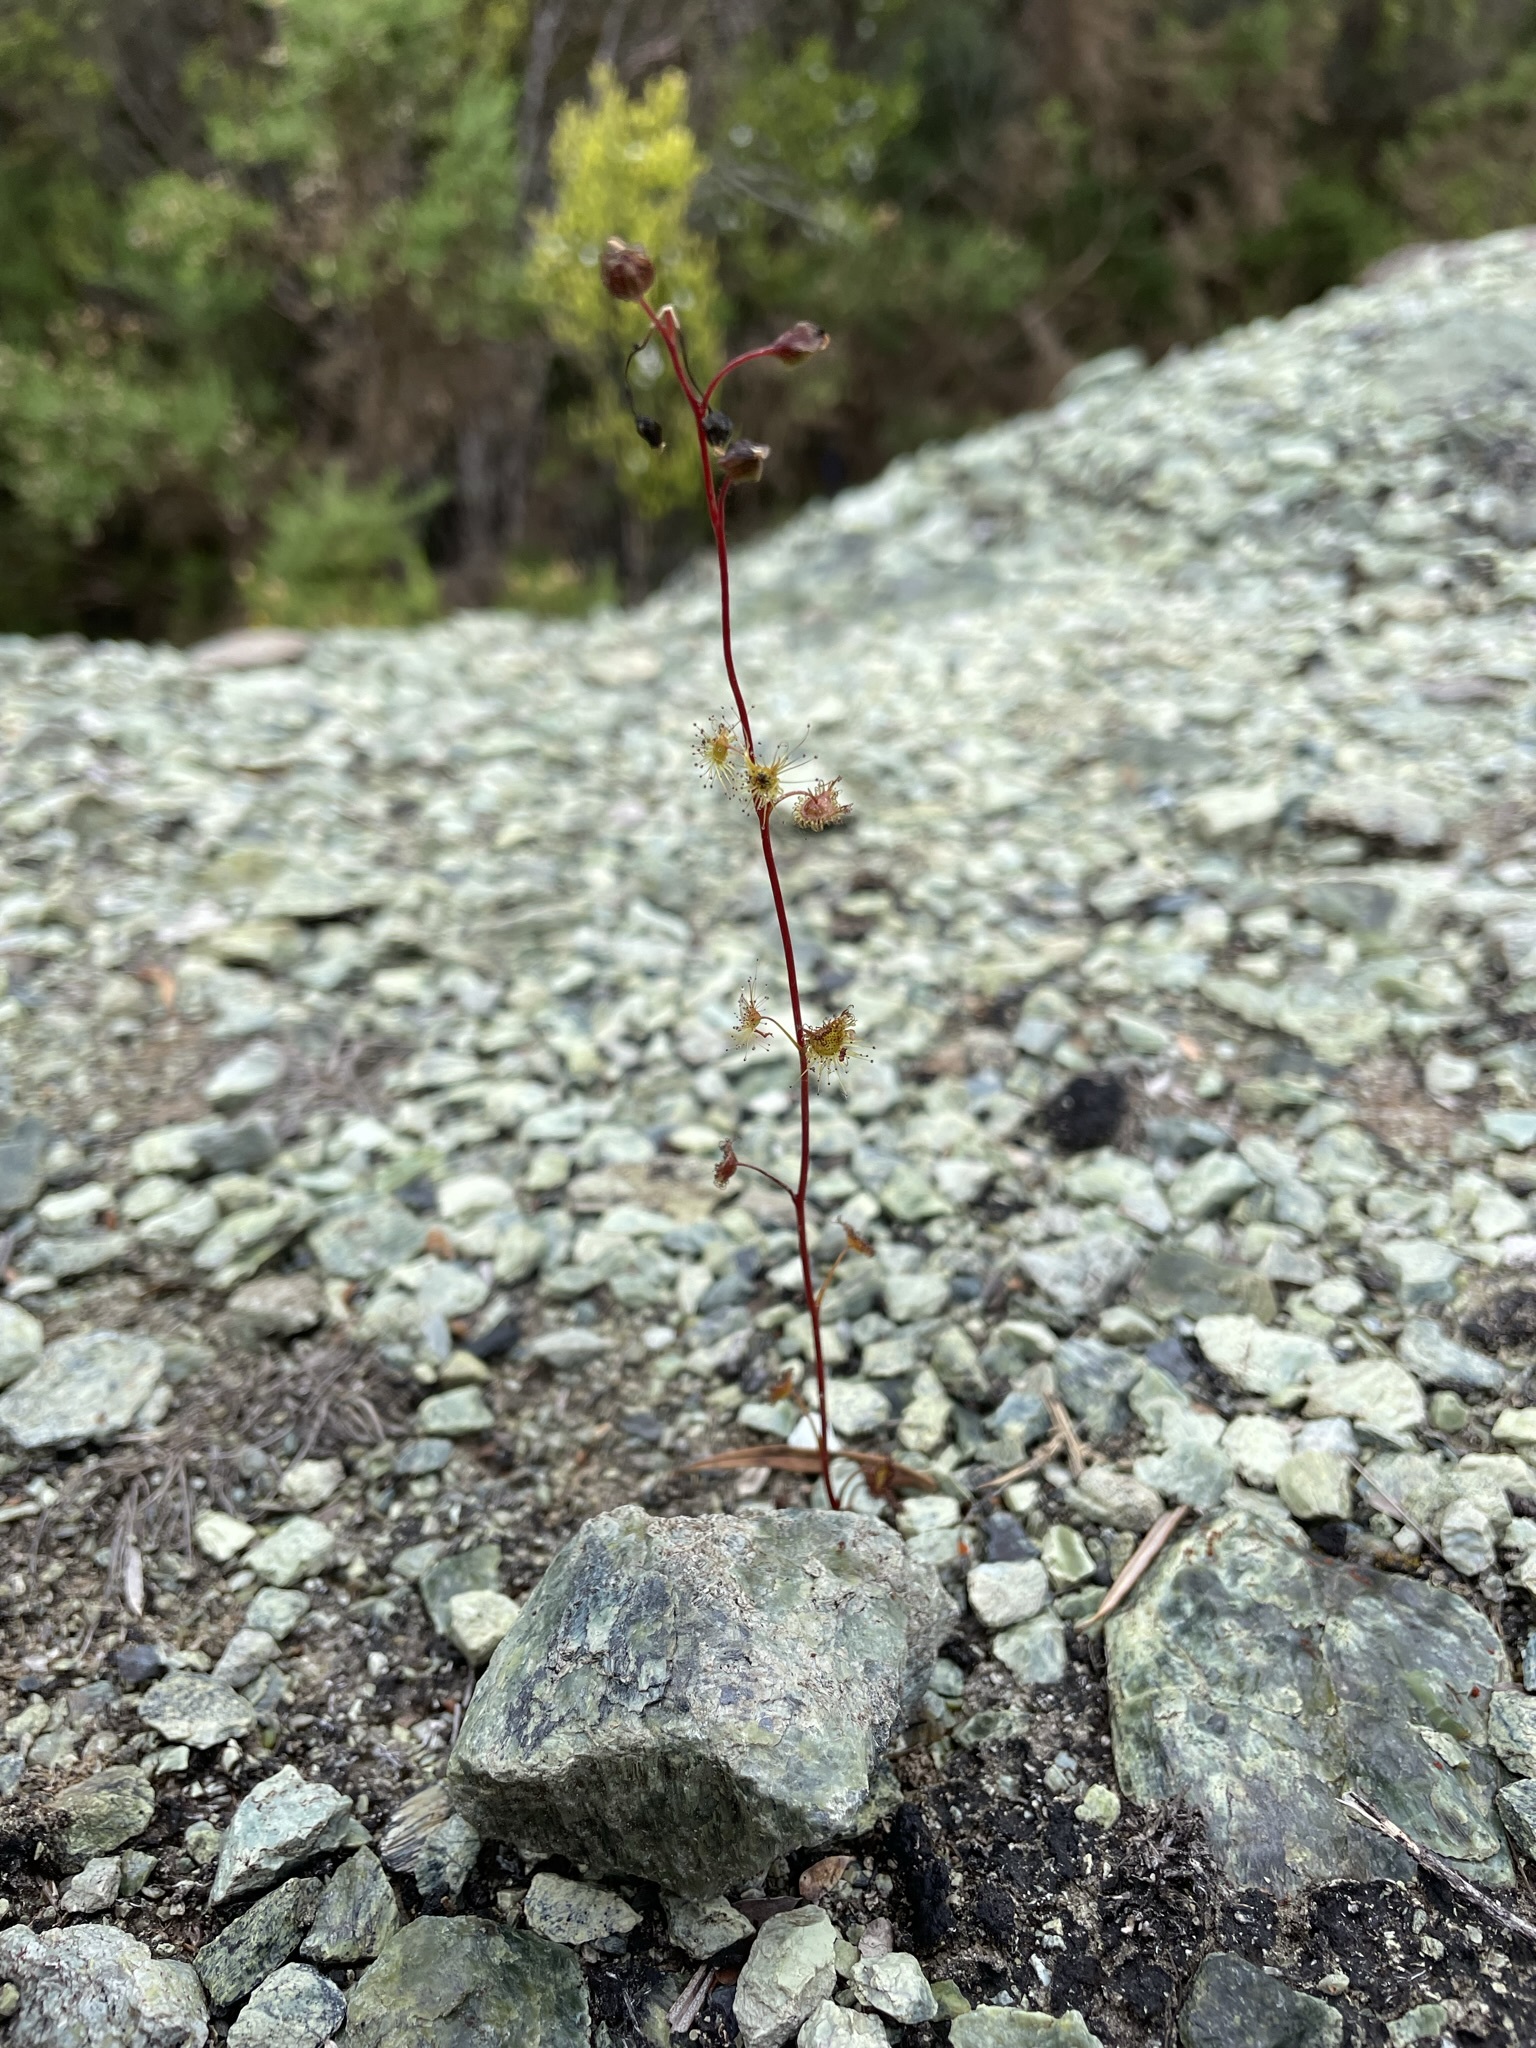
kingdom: Plantae
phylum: Tracheophyta
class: Magnoliopsida
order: Caryophyllales
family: Droseraceae
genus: Drosera
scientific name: Drosera peltata
